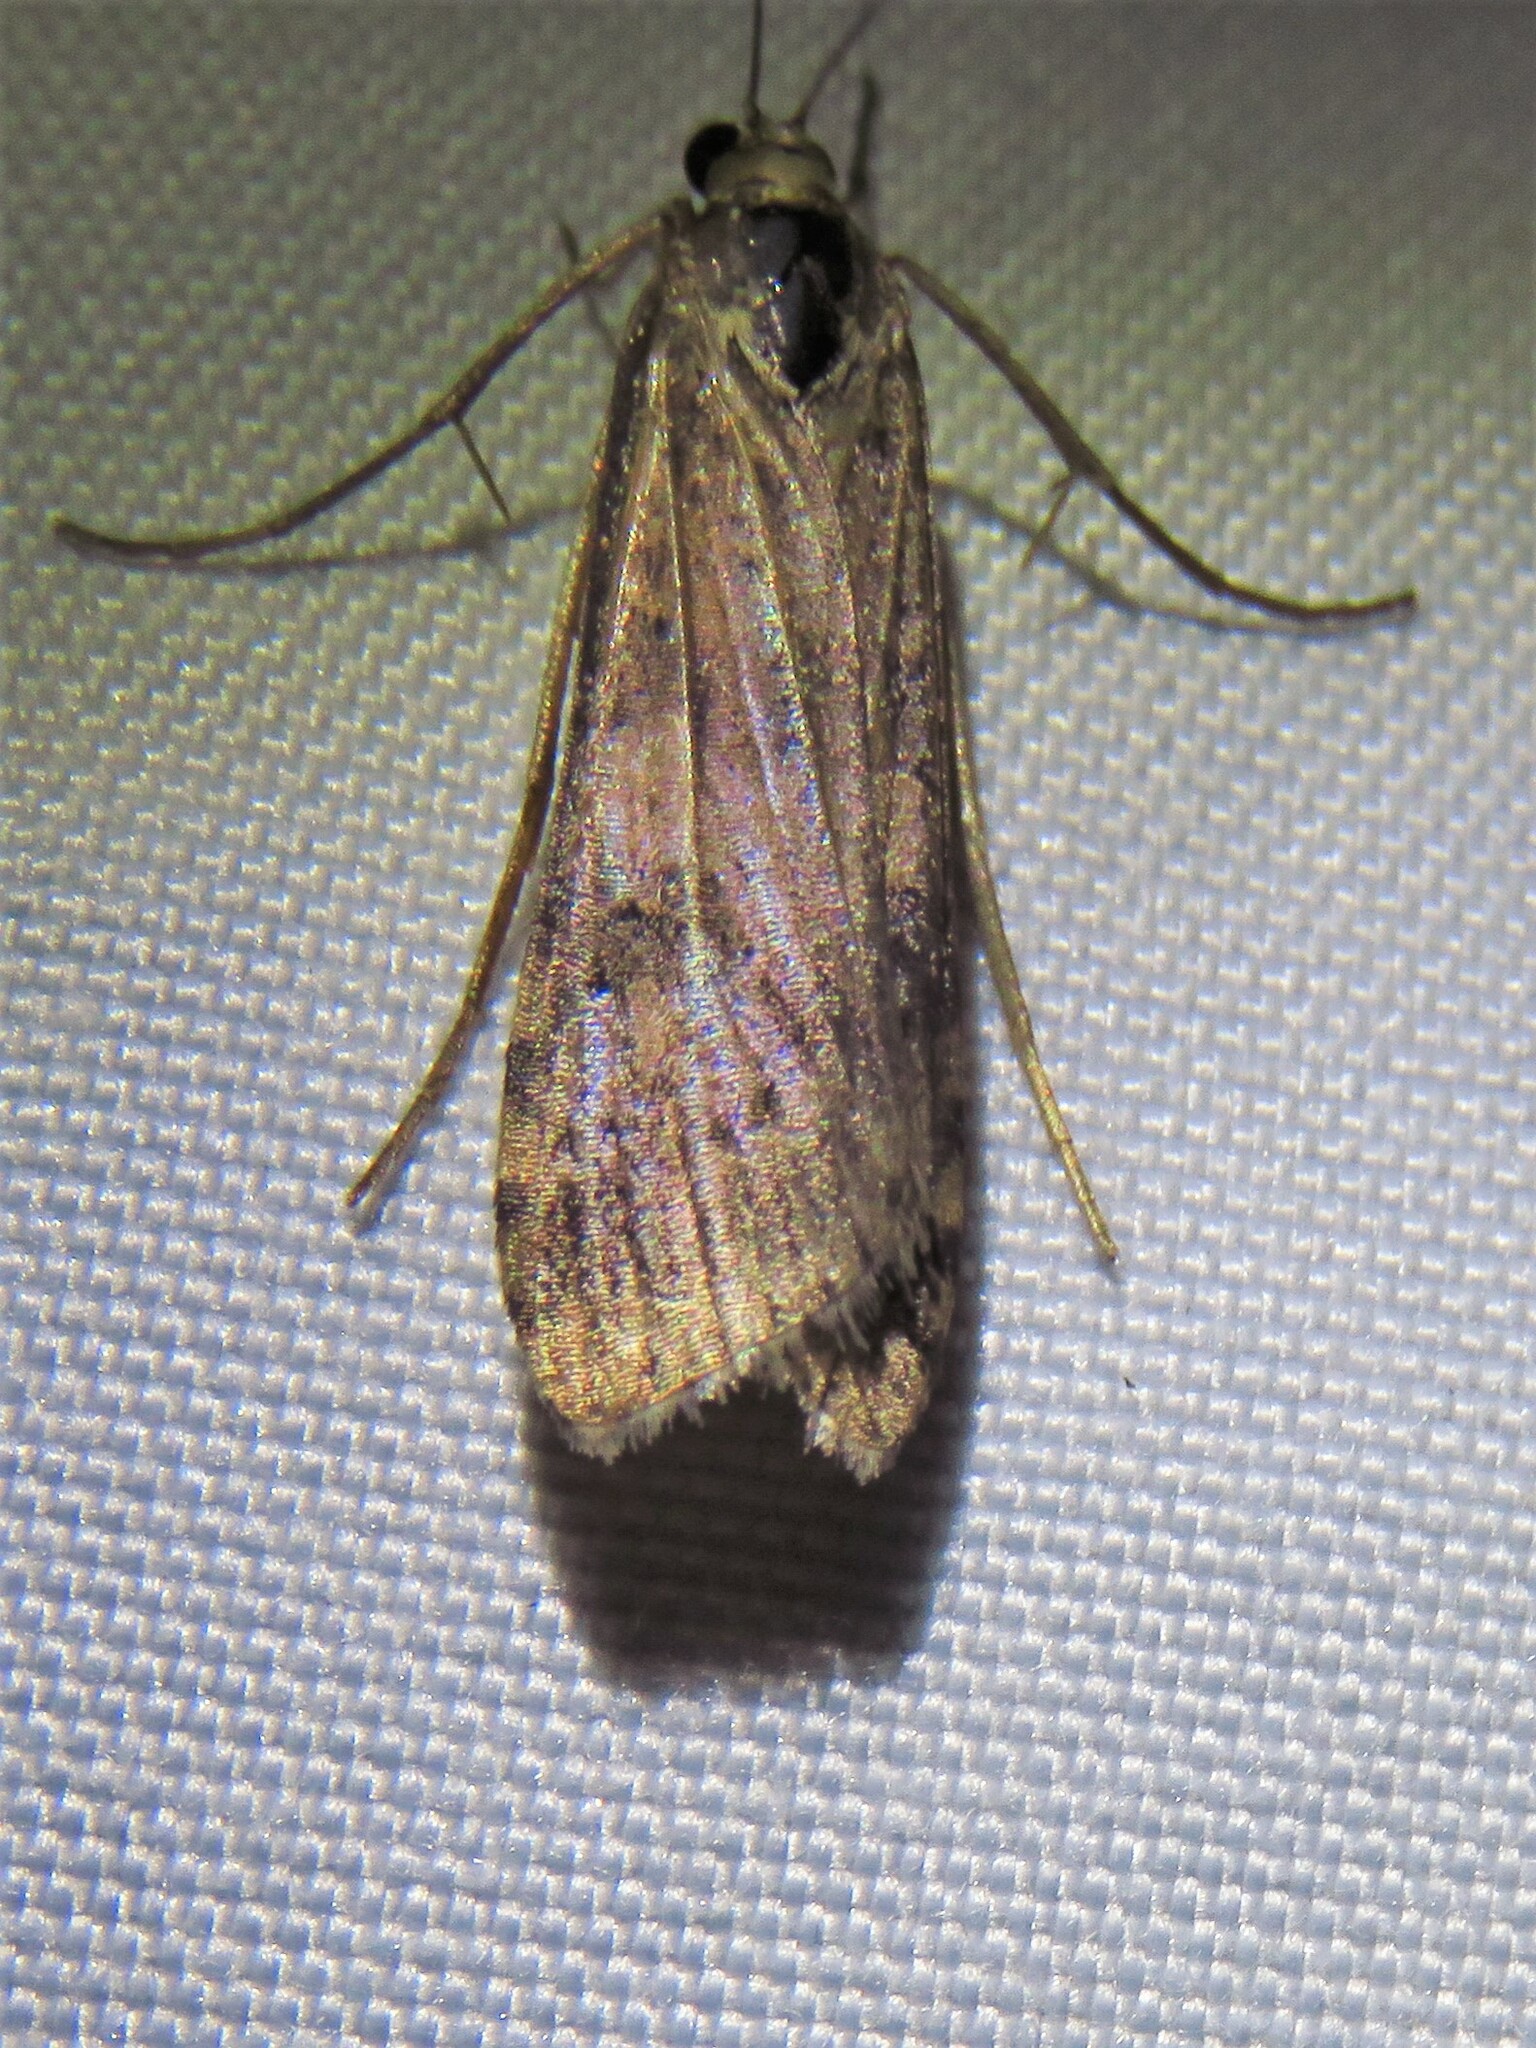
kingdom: Animalia
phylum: Arthropoda
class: Insecta
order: Lepidoptera
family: Crambidae
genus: Nomophila
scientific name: Nomophila nearctica
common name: American rush veneer
